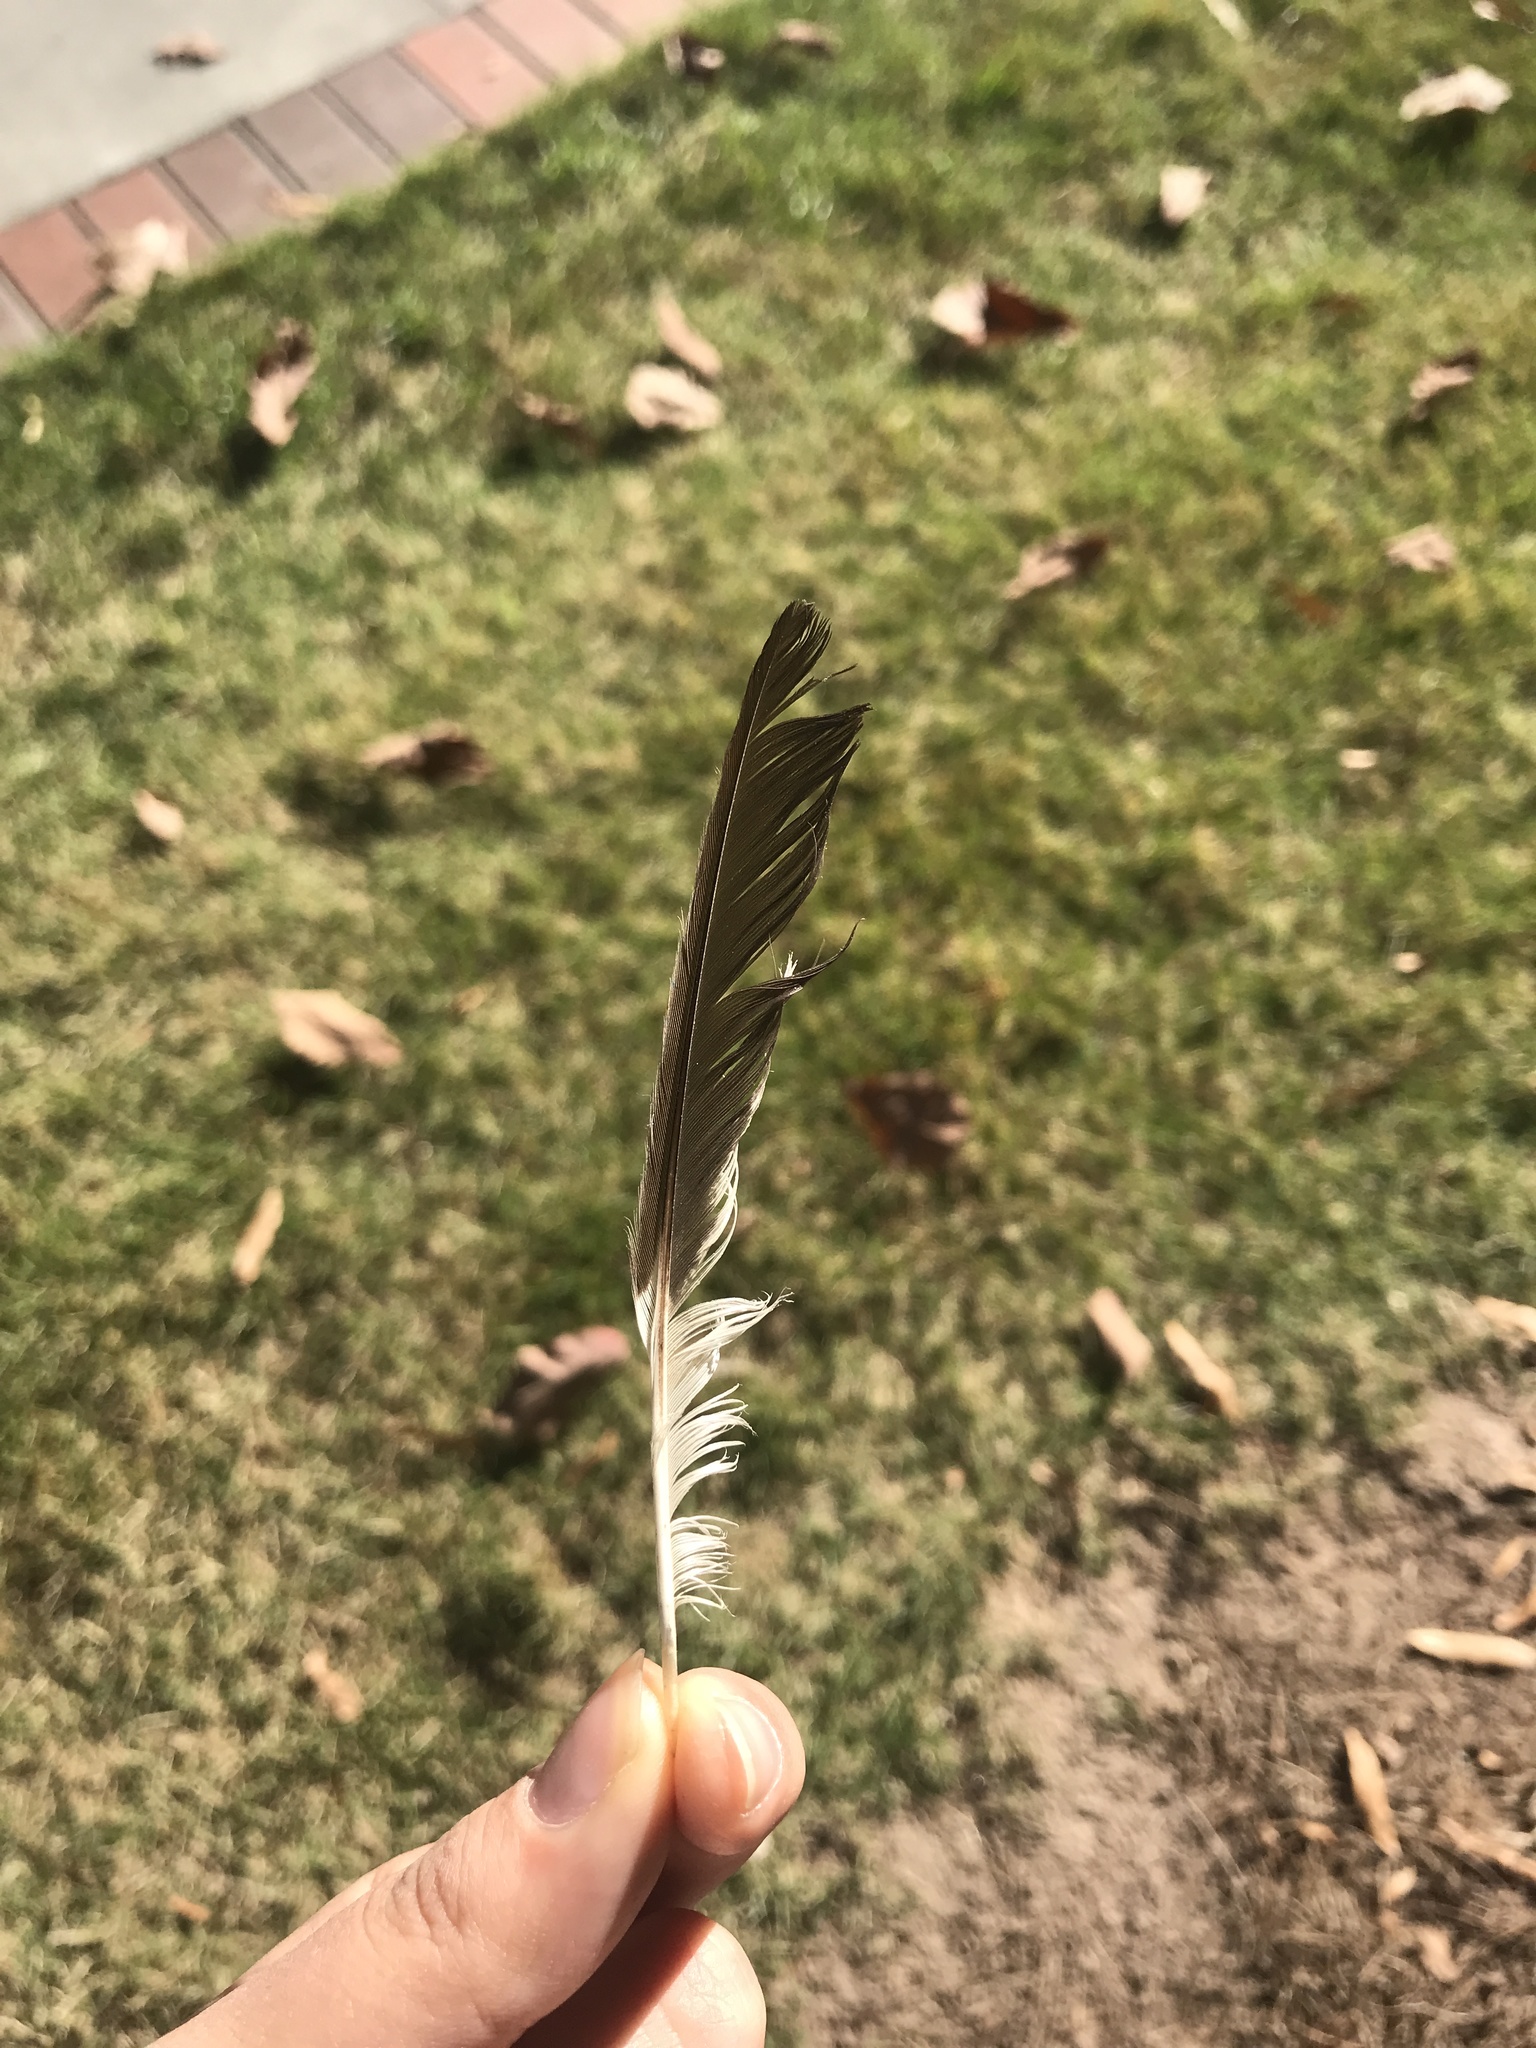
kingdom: Animalia
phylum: Chordata
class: Aves
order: Passeriformes
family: Mimidae
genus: Mimus
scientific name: Mimus polyglottos
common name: Northern mockingbird
